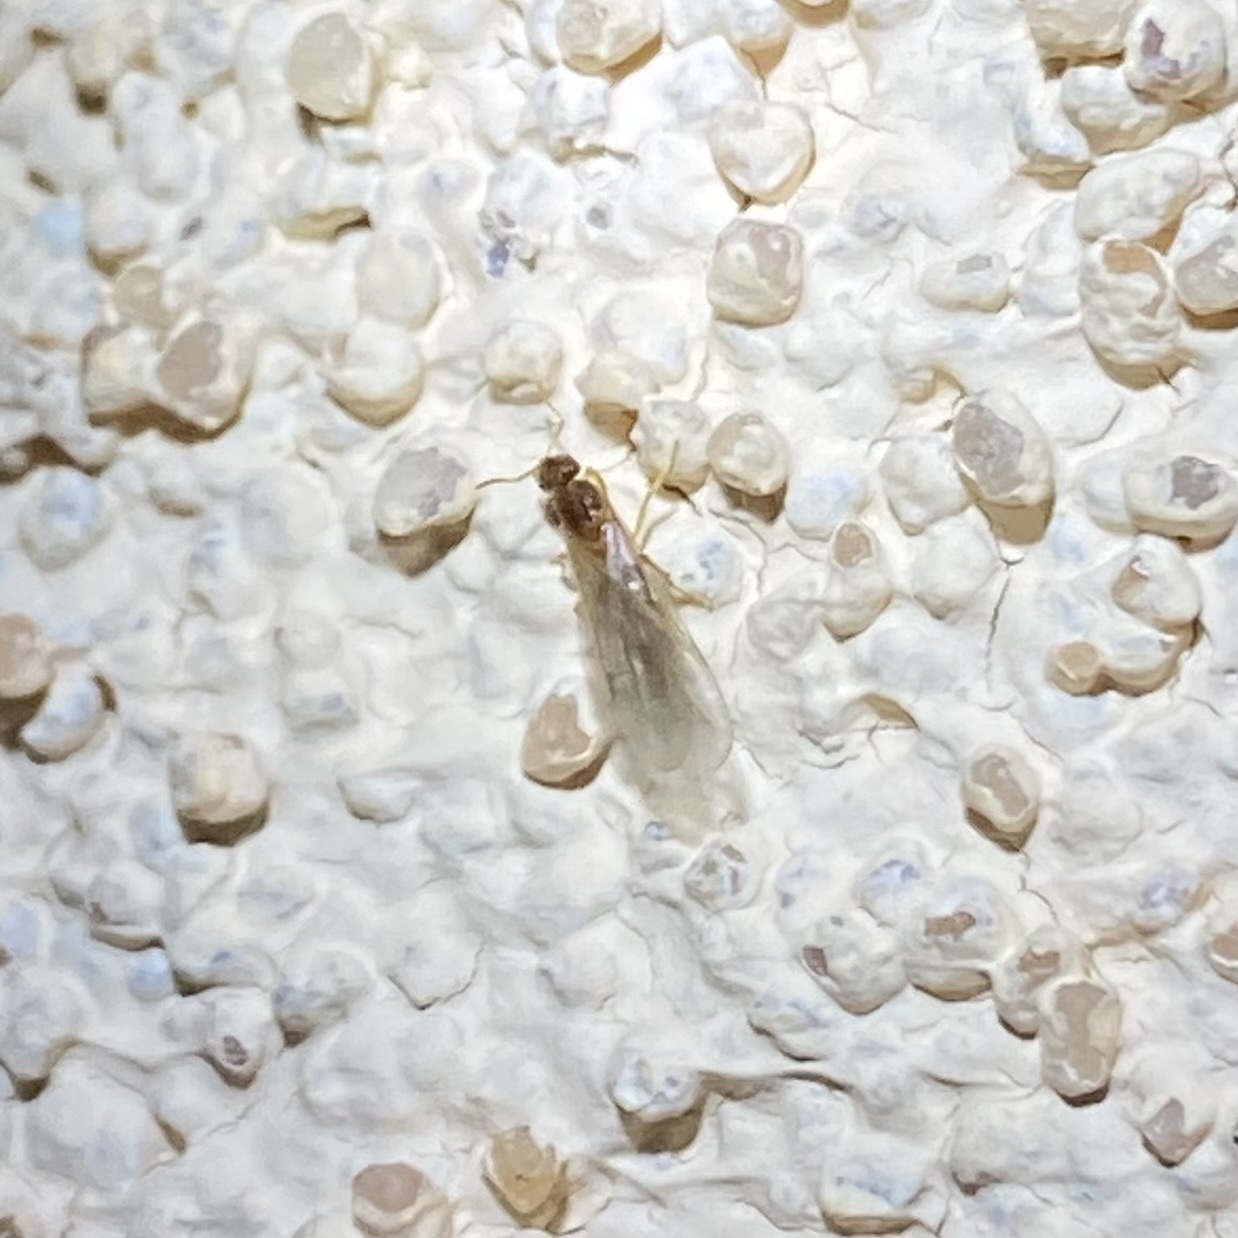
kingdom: Animalia
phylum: Arthropoda
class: Insecta
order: Hymenoptera
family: Formicidae
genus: Brachymyrmex
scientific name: Brachymyrmex depilis
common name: Hairless rover ant
